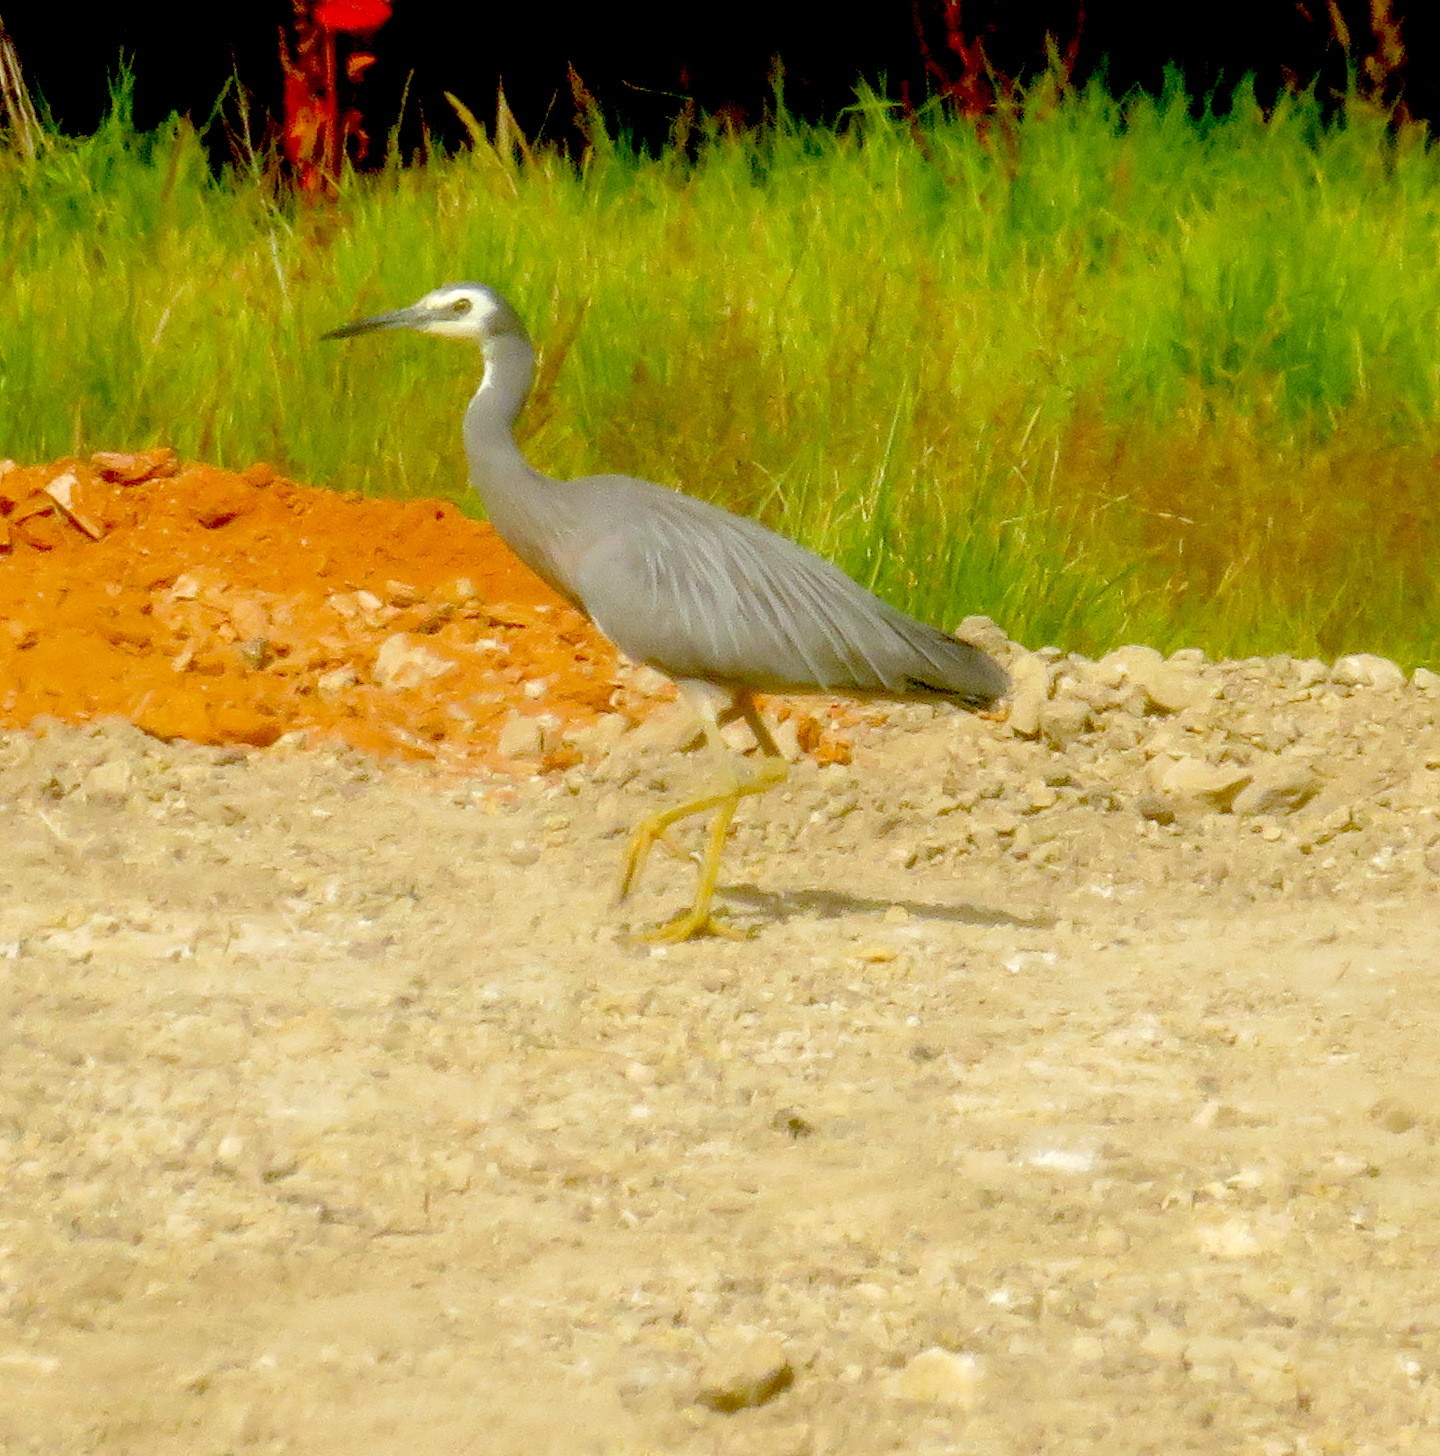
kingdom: Animalia
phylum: Chordata
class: Aves
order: Pelecaniformes
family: Ardeidae
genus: Egretta
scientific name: Egretta novaehollandiae
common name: White-faced heron
